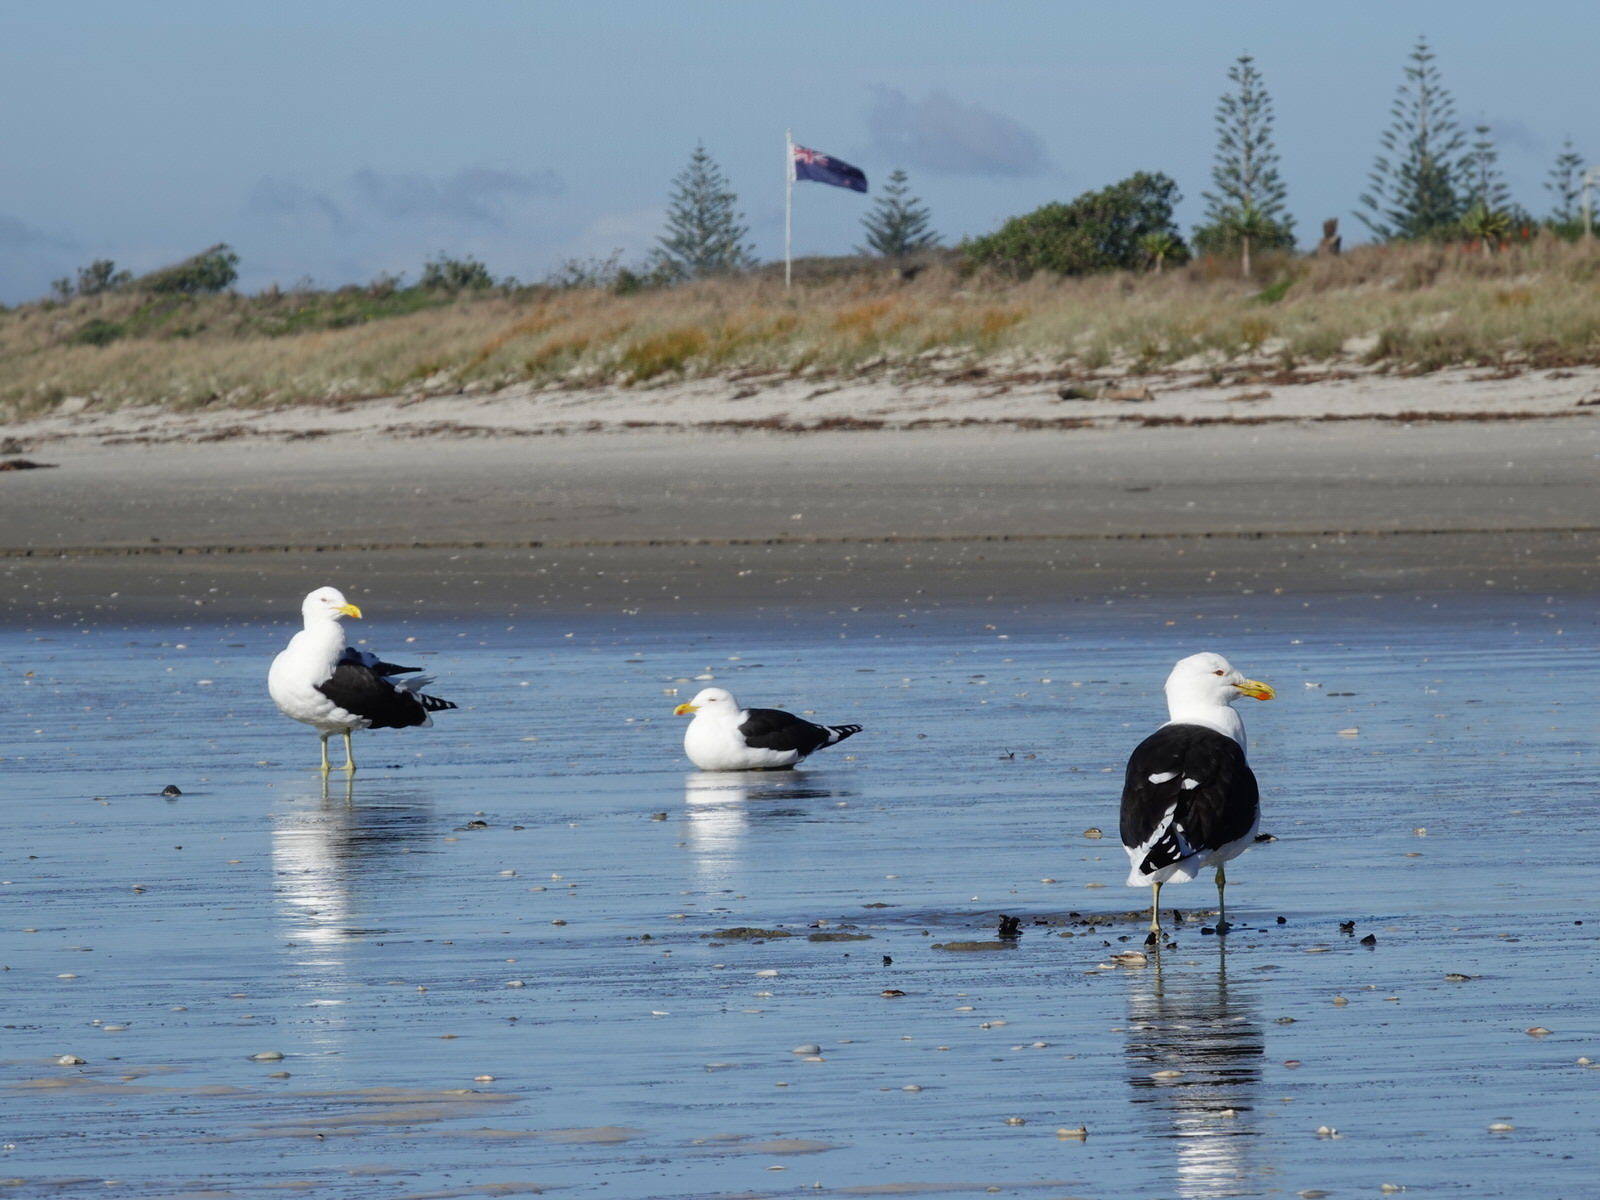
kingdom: Animalia
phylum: Chordata
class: Aves
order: Charadriiformes
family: Laridae
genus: Larus
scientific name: Larus dominicanus
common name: Kelp gull
